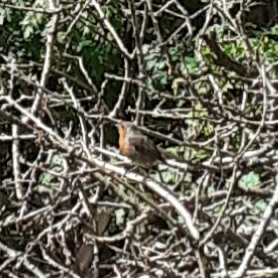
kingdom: Animalia
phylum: Chordata
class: Aves
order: Passeriformes
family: Muscicapidae
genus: Erithacus
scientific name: Erithacus rubecula
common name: European robin
